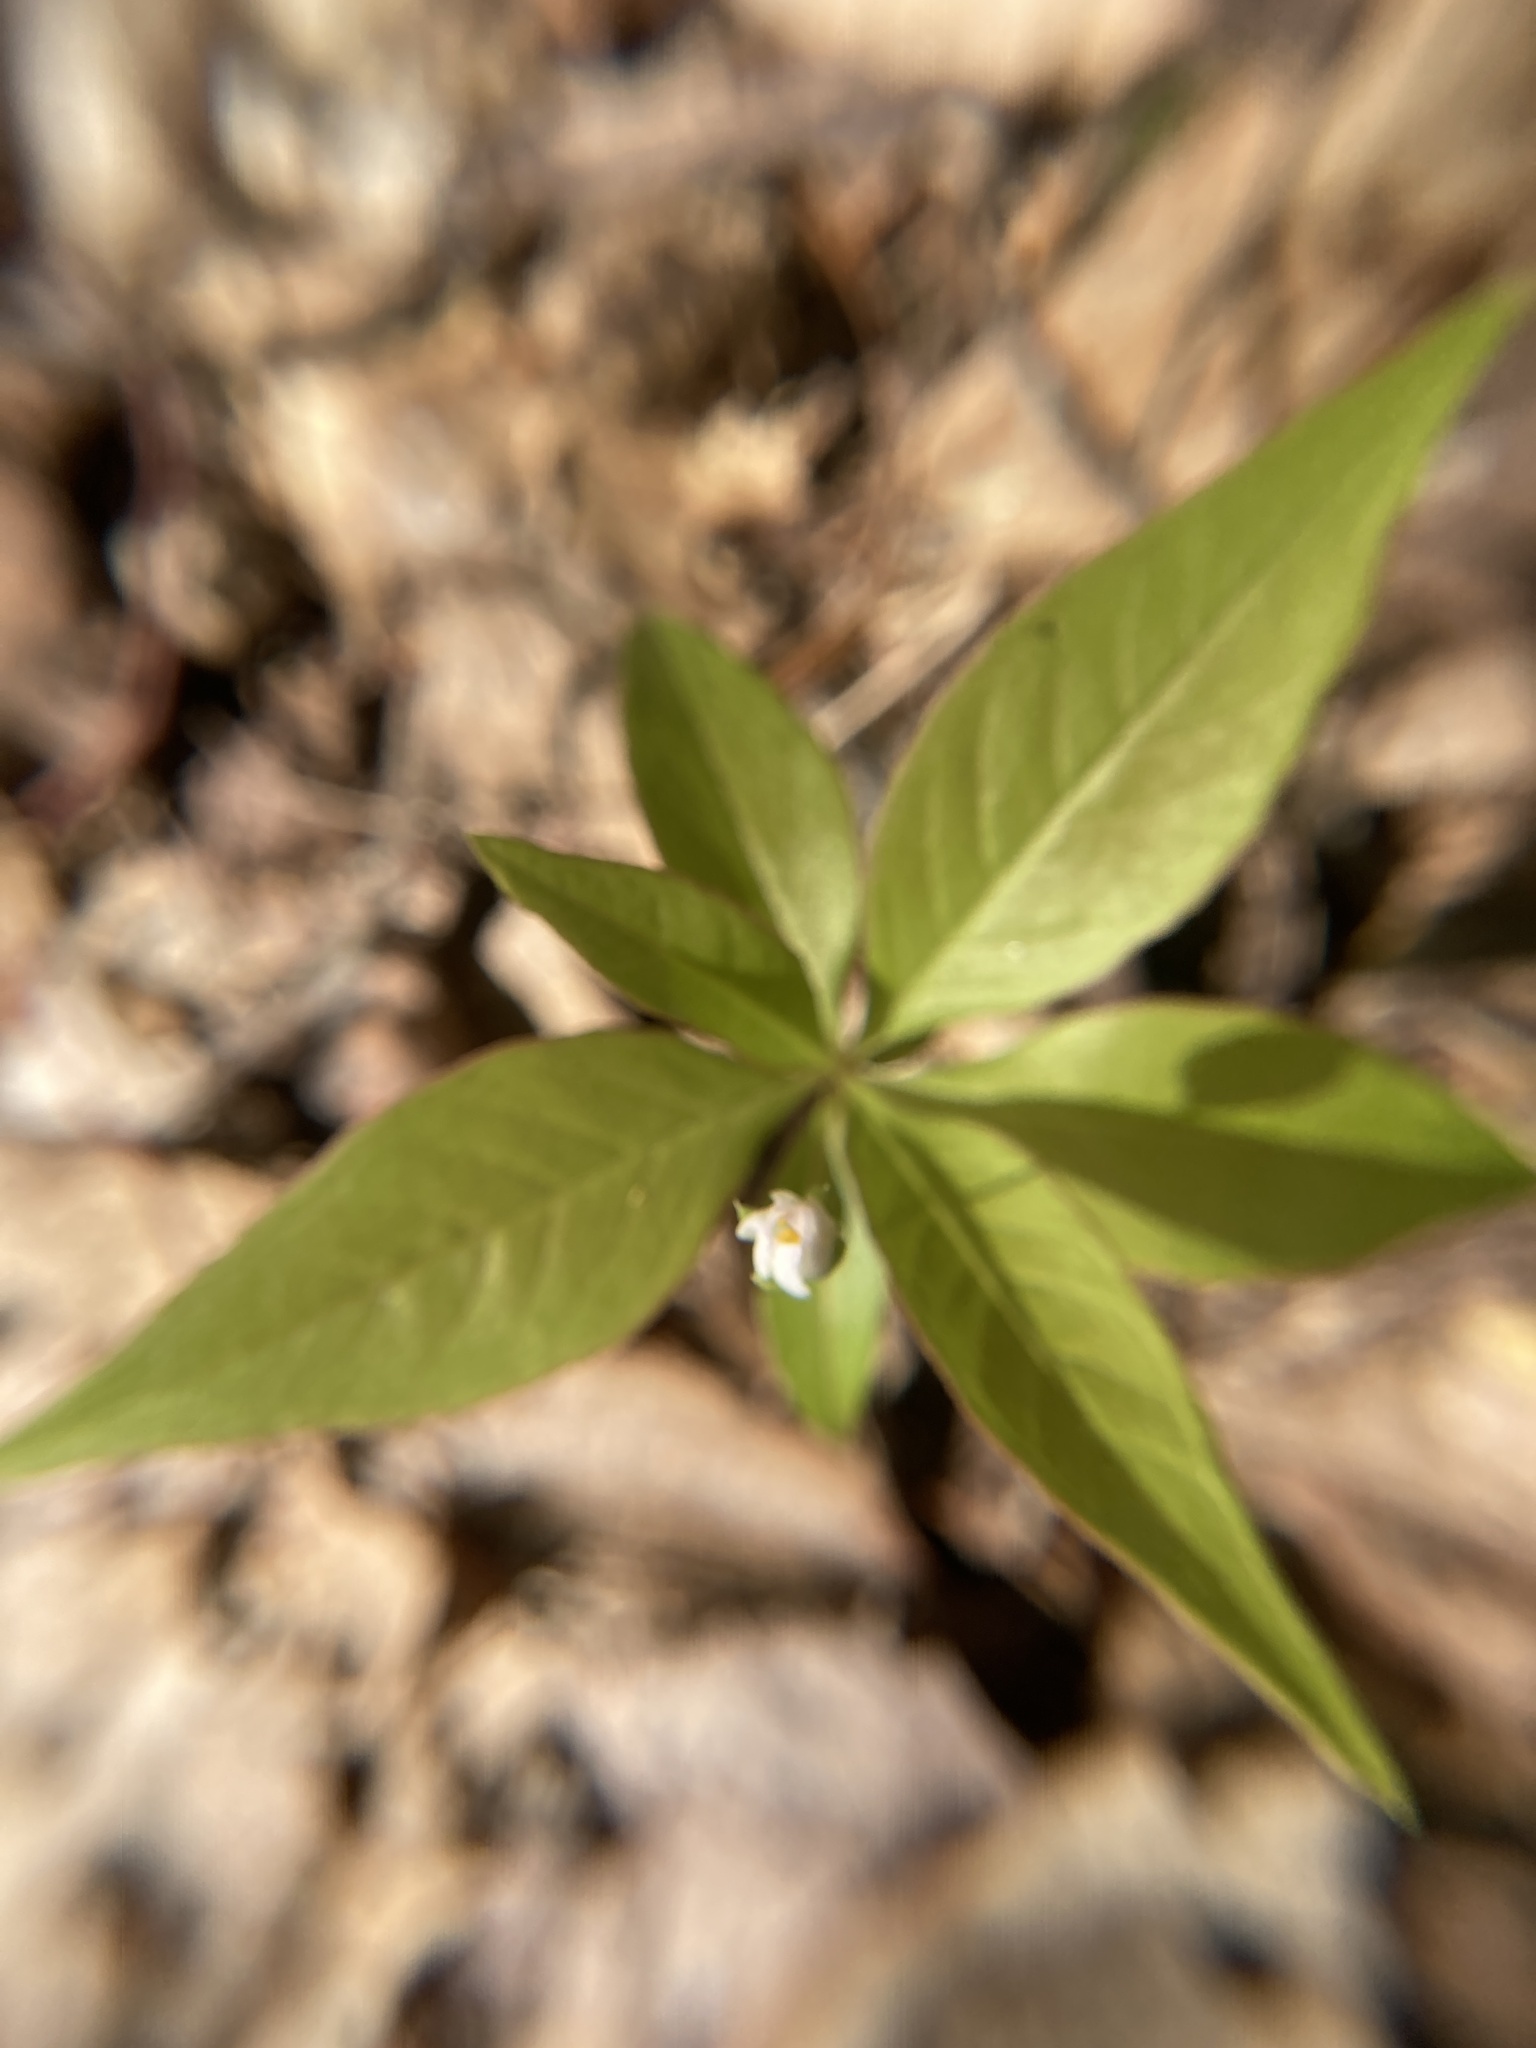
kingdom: Plantae
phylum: Tracheophyta
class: Magnoliopsida
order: Ericales
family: Primulaceae
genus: Lysimachia
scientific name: Lysimachia borealis
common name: American starflower
